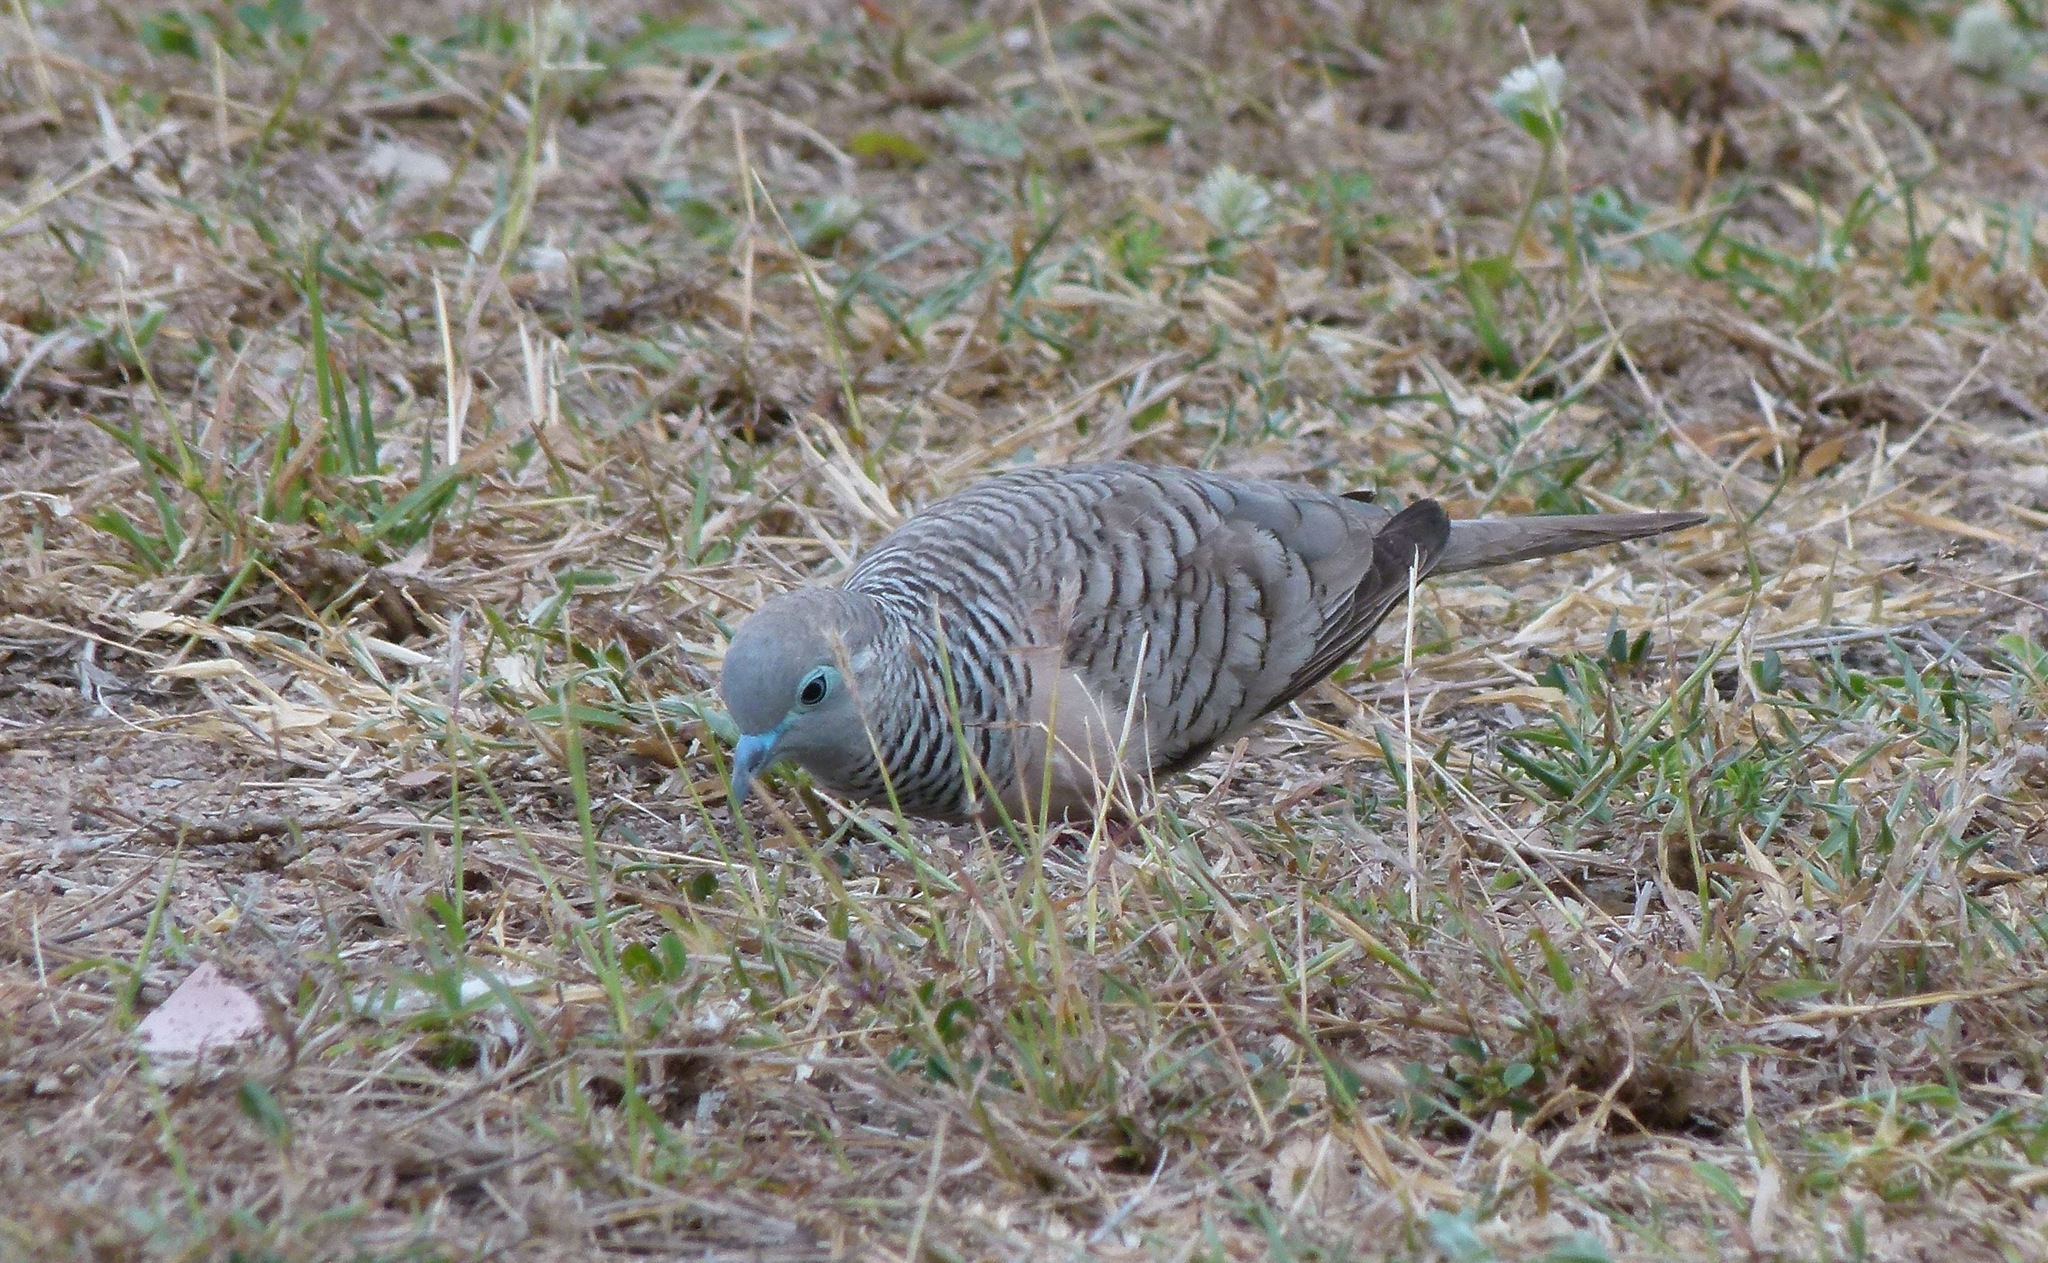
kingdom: Animalia
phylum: Chordata
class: Aves
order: Columbiformes
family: Columbidae
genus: Geopelia
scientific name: Geopelia placida
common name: Peaceful dove
